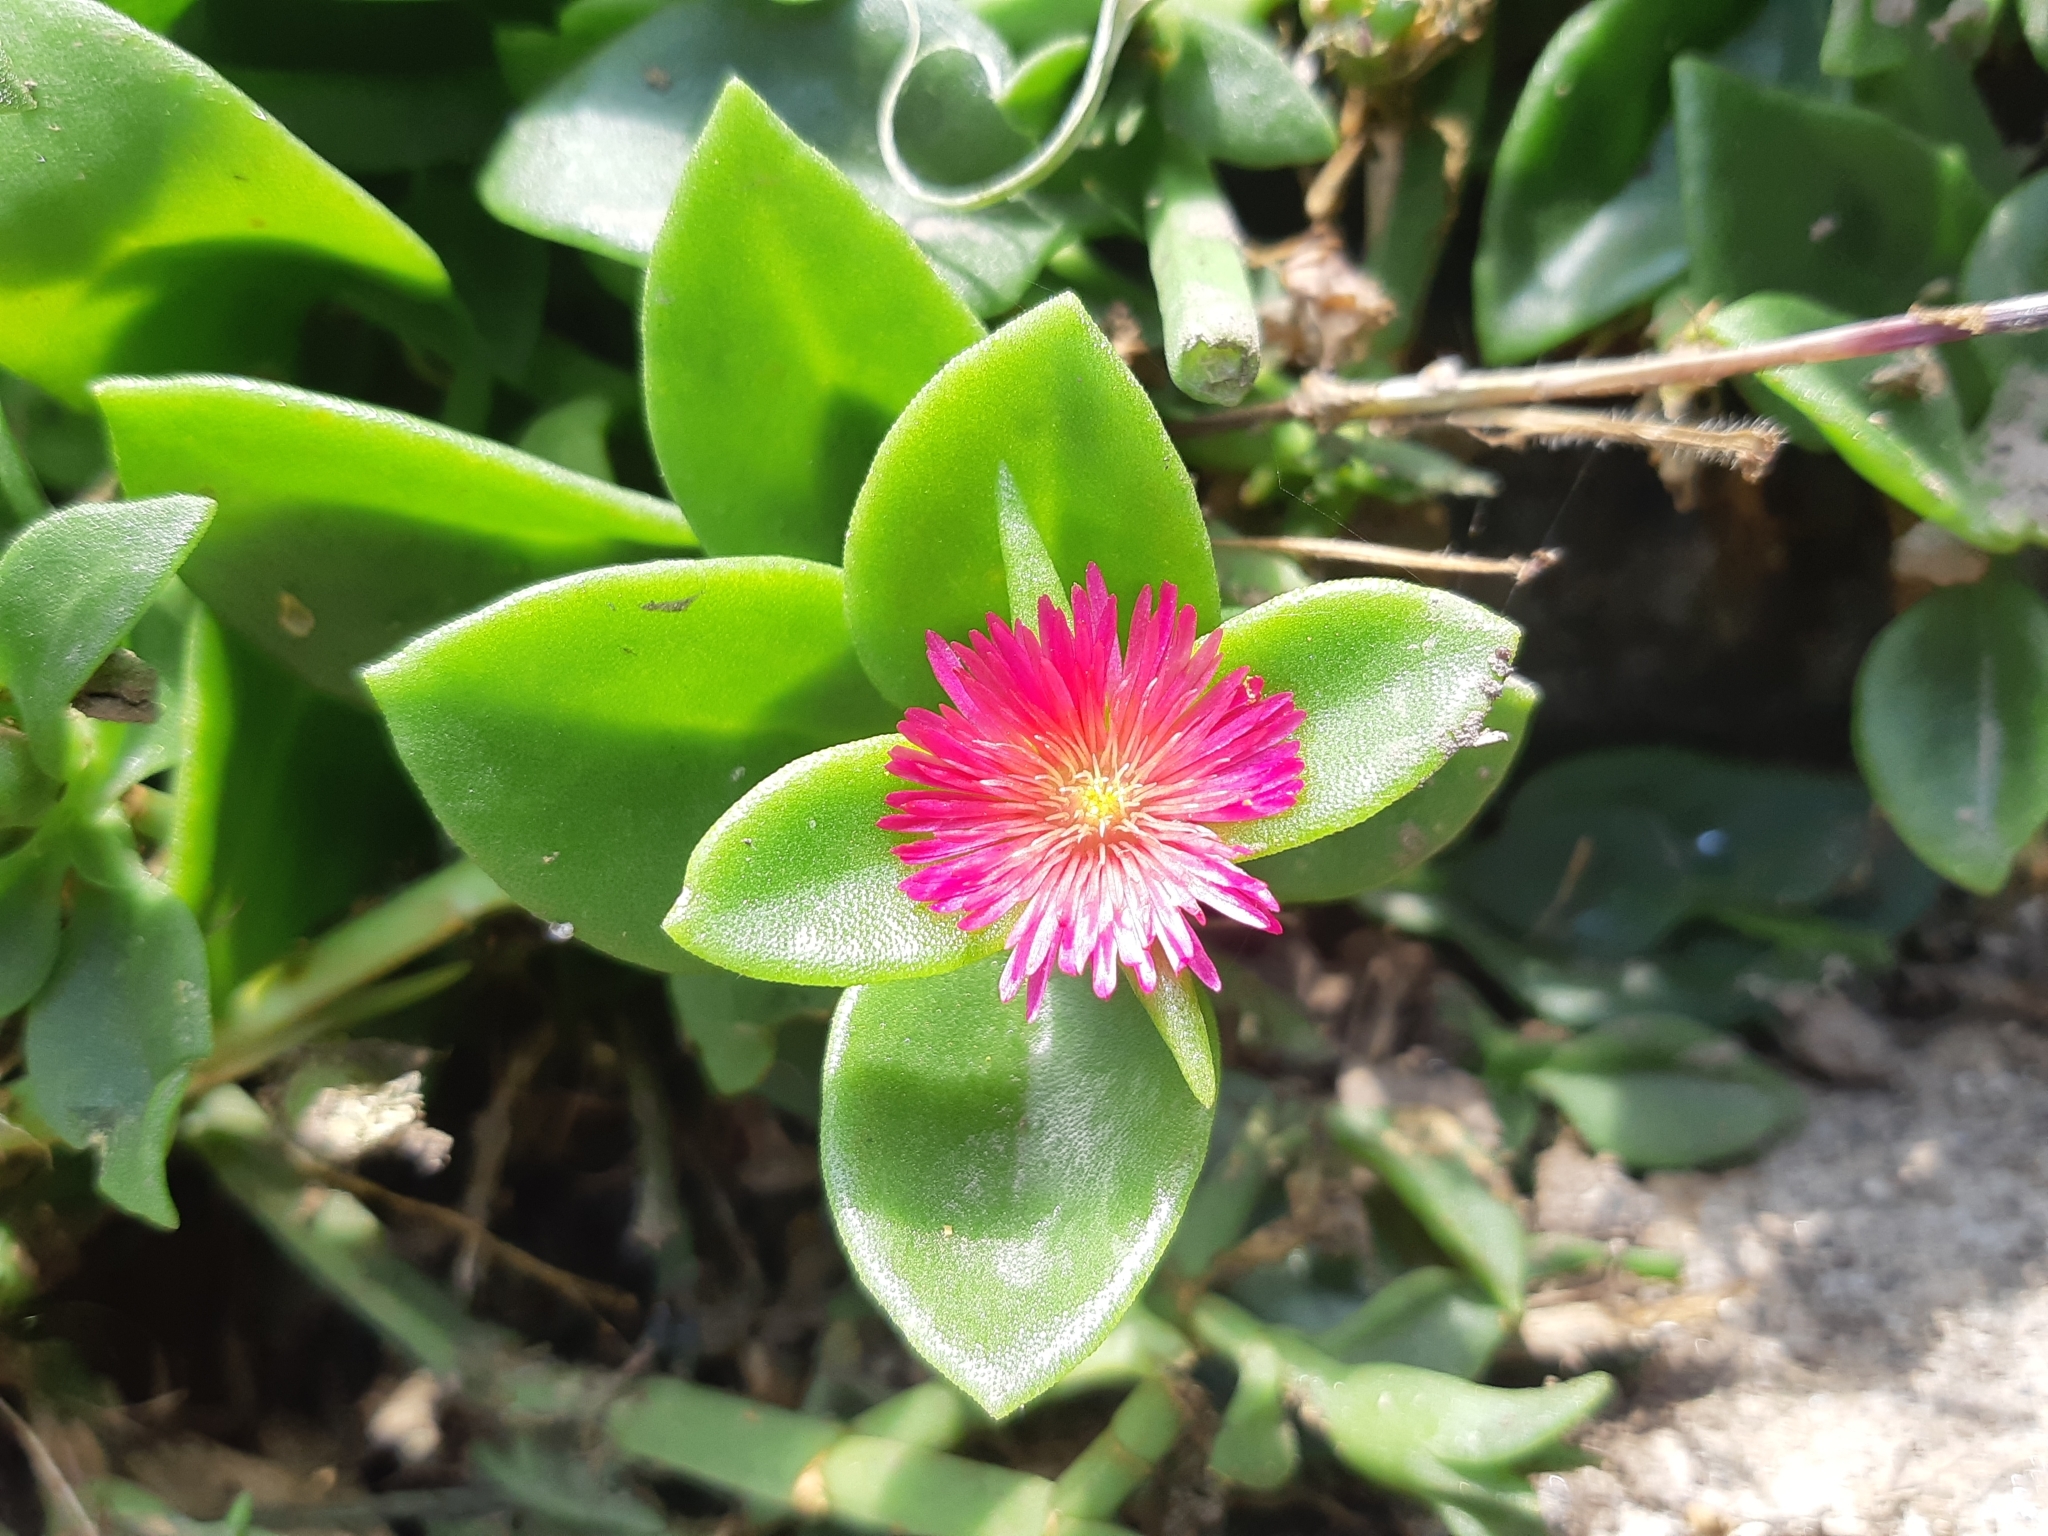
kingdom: Plantae
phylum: Tracheophyta
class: Magnoliopsida
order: Caryophyllales
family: Aizoaceae
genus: Mesembryanthemum
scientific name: Mesembryanthemum cordifolium
